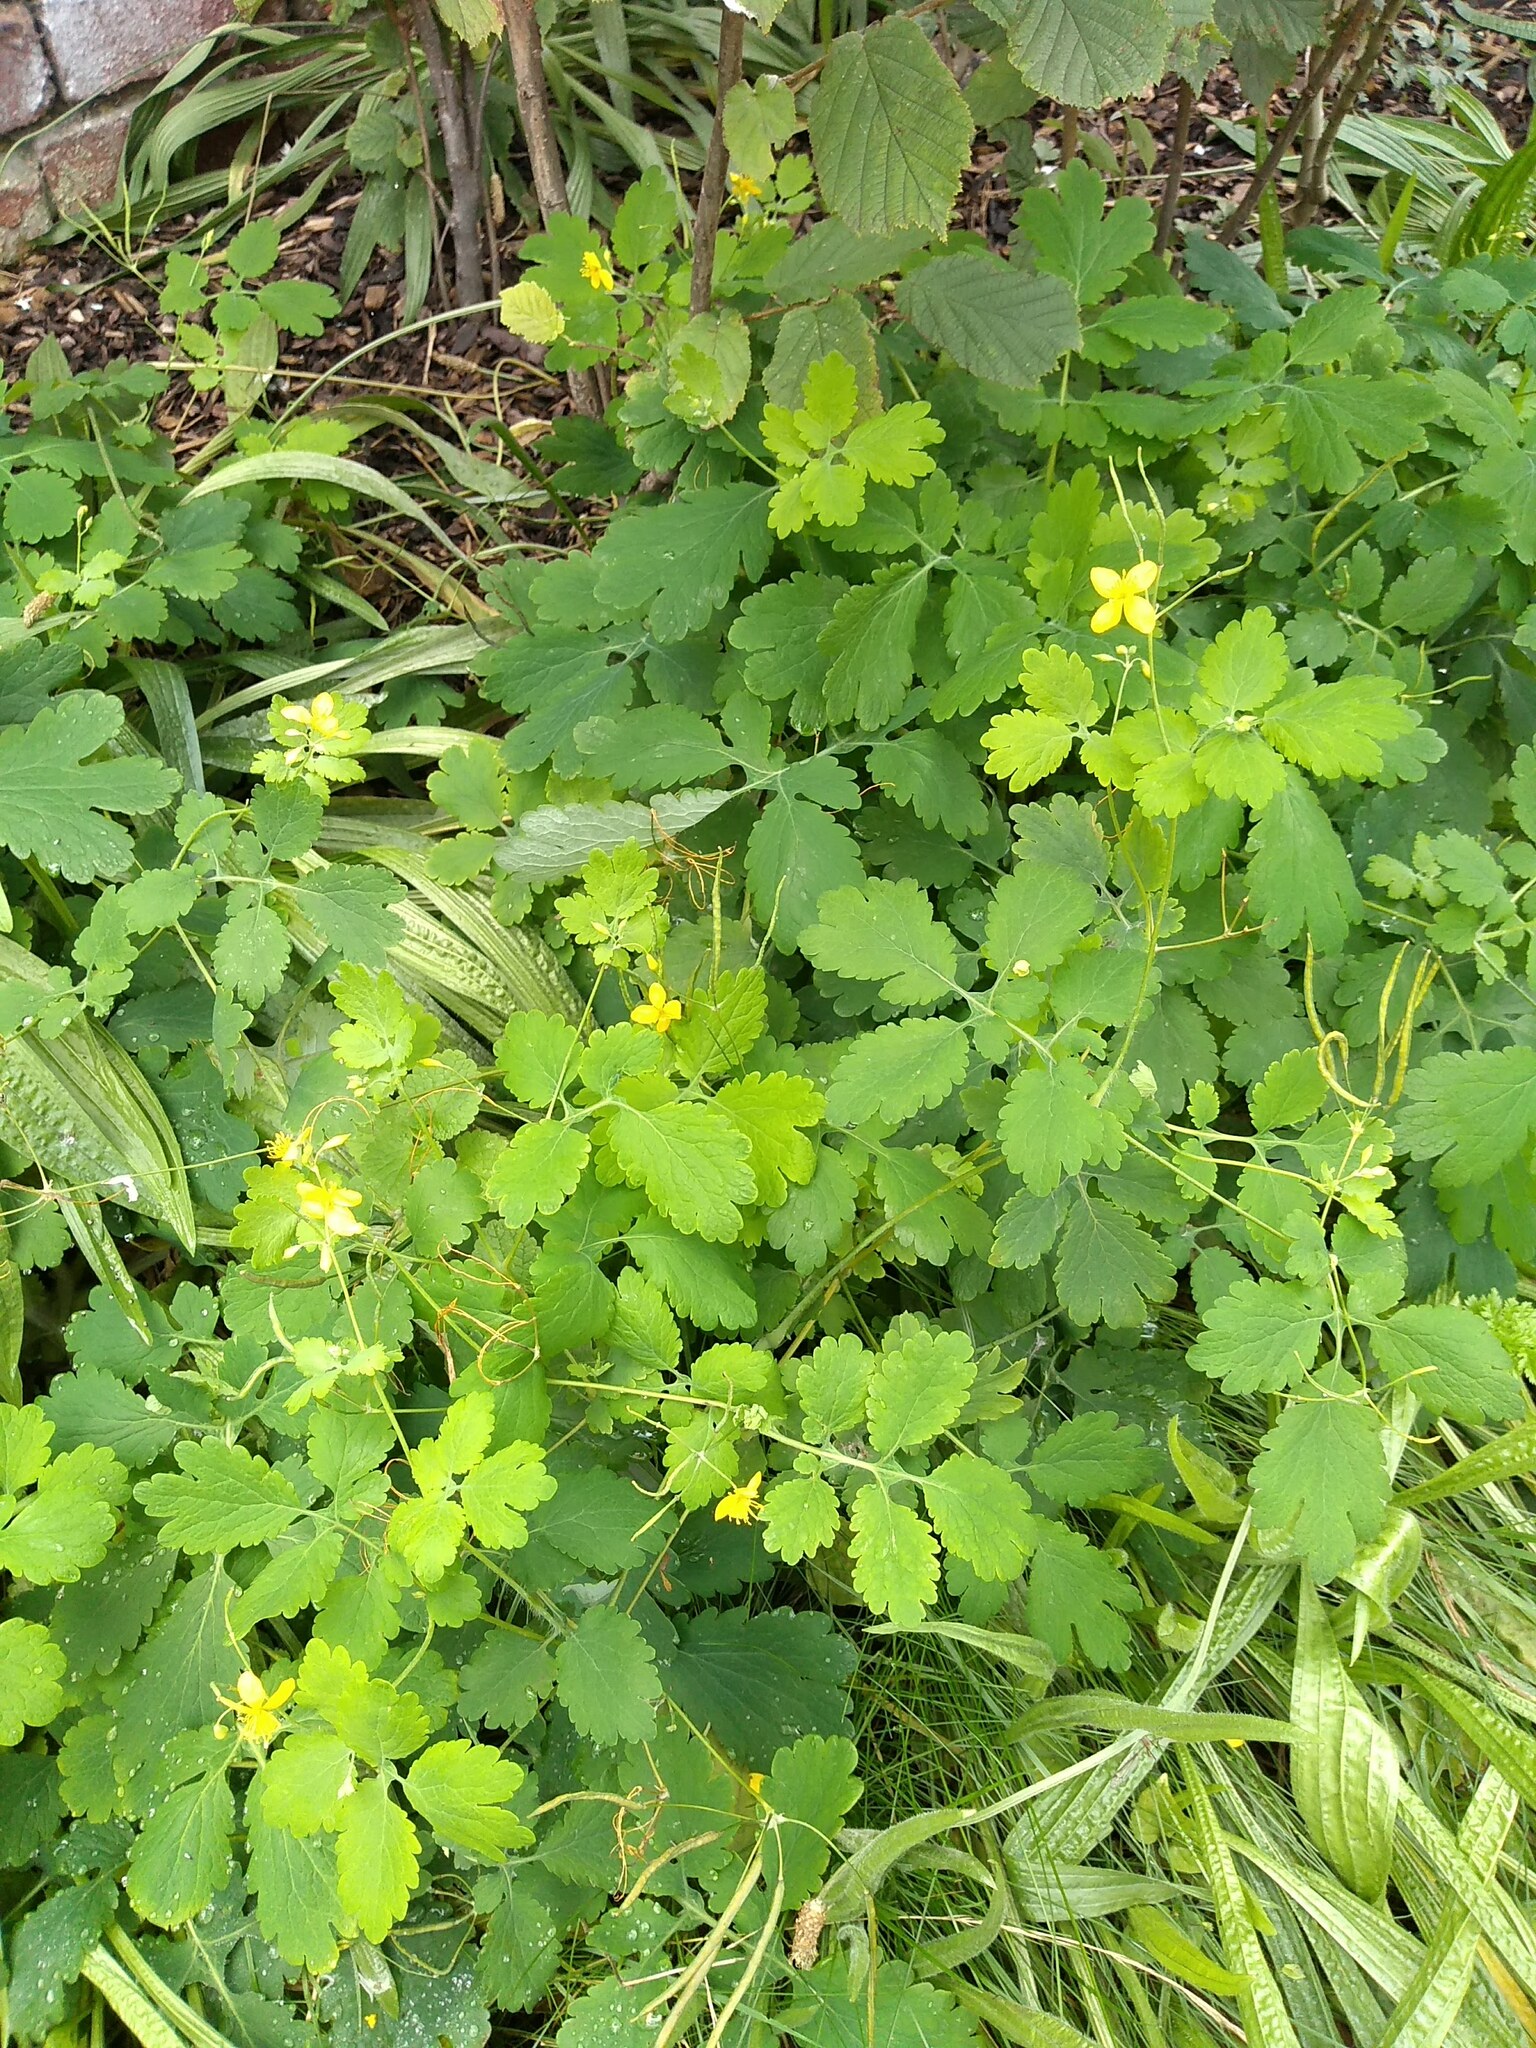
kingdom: Plantae
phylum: Tracheophyta
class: Magnoliopsida
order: Ranunculales
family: Papaveraceae
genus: Chelidonium
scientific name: Chelidonium majus
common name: Greater celandine
